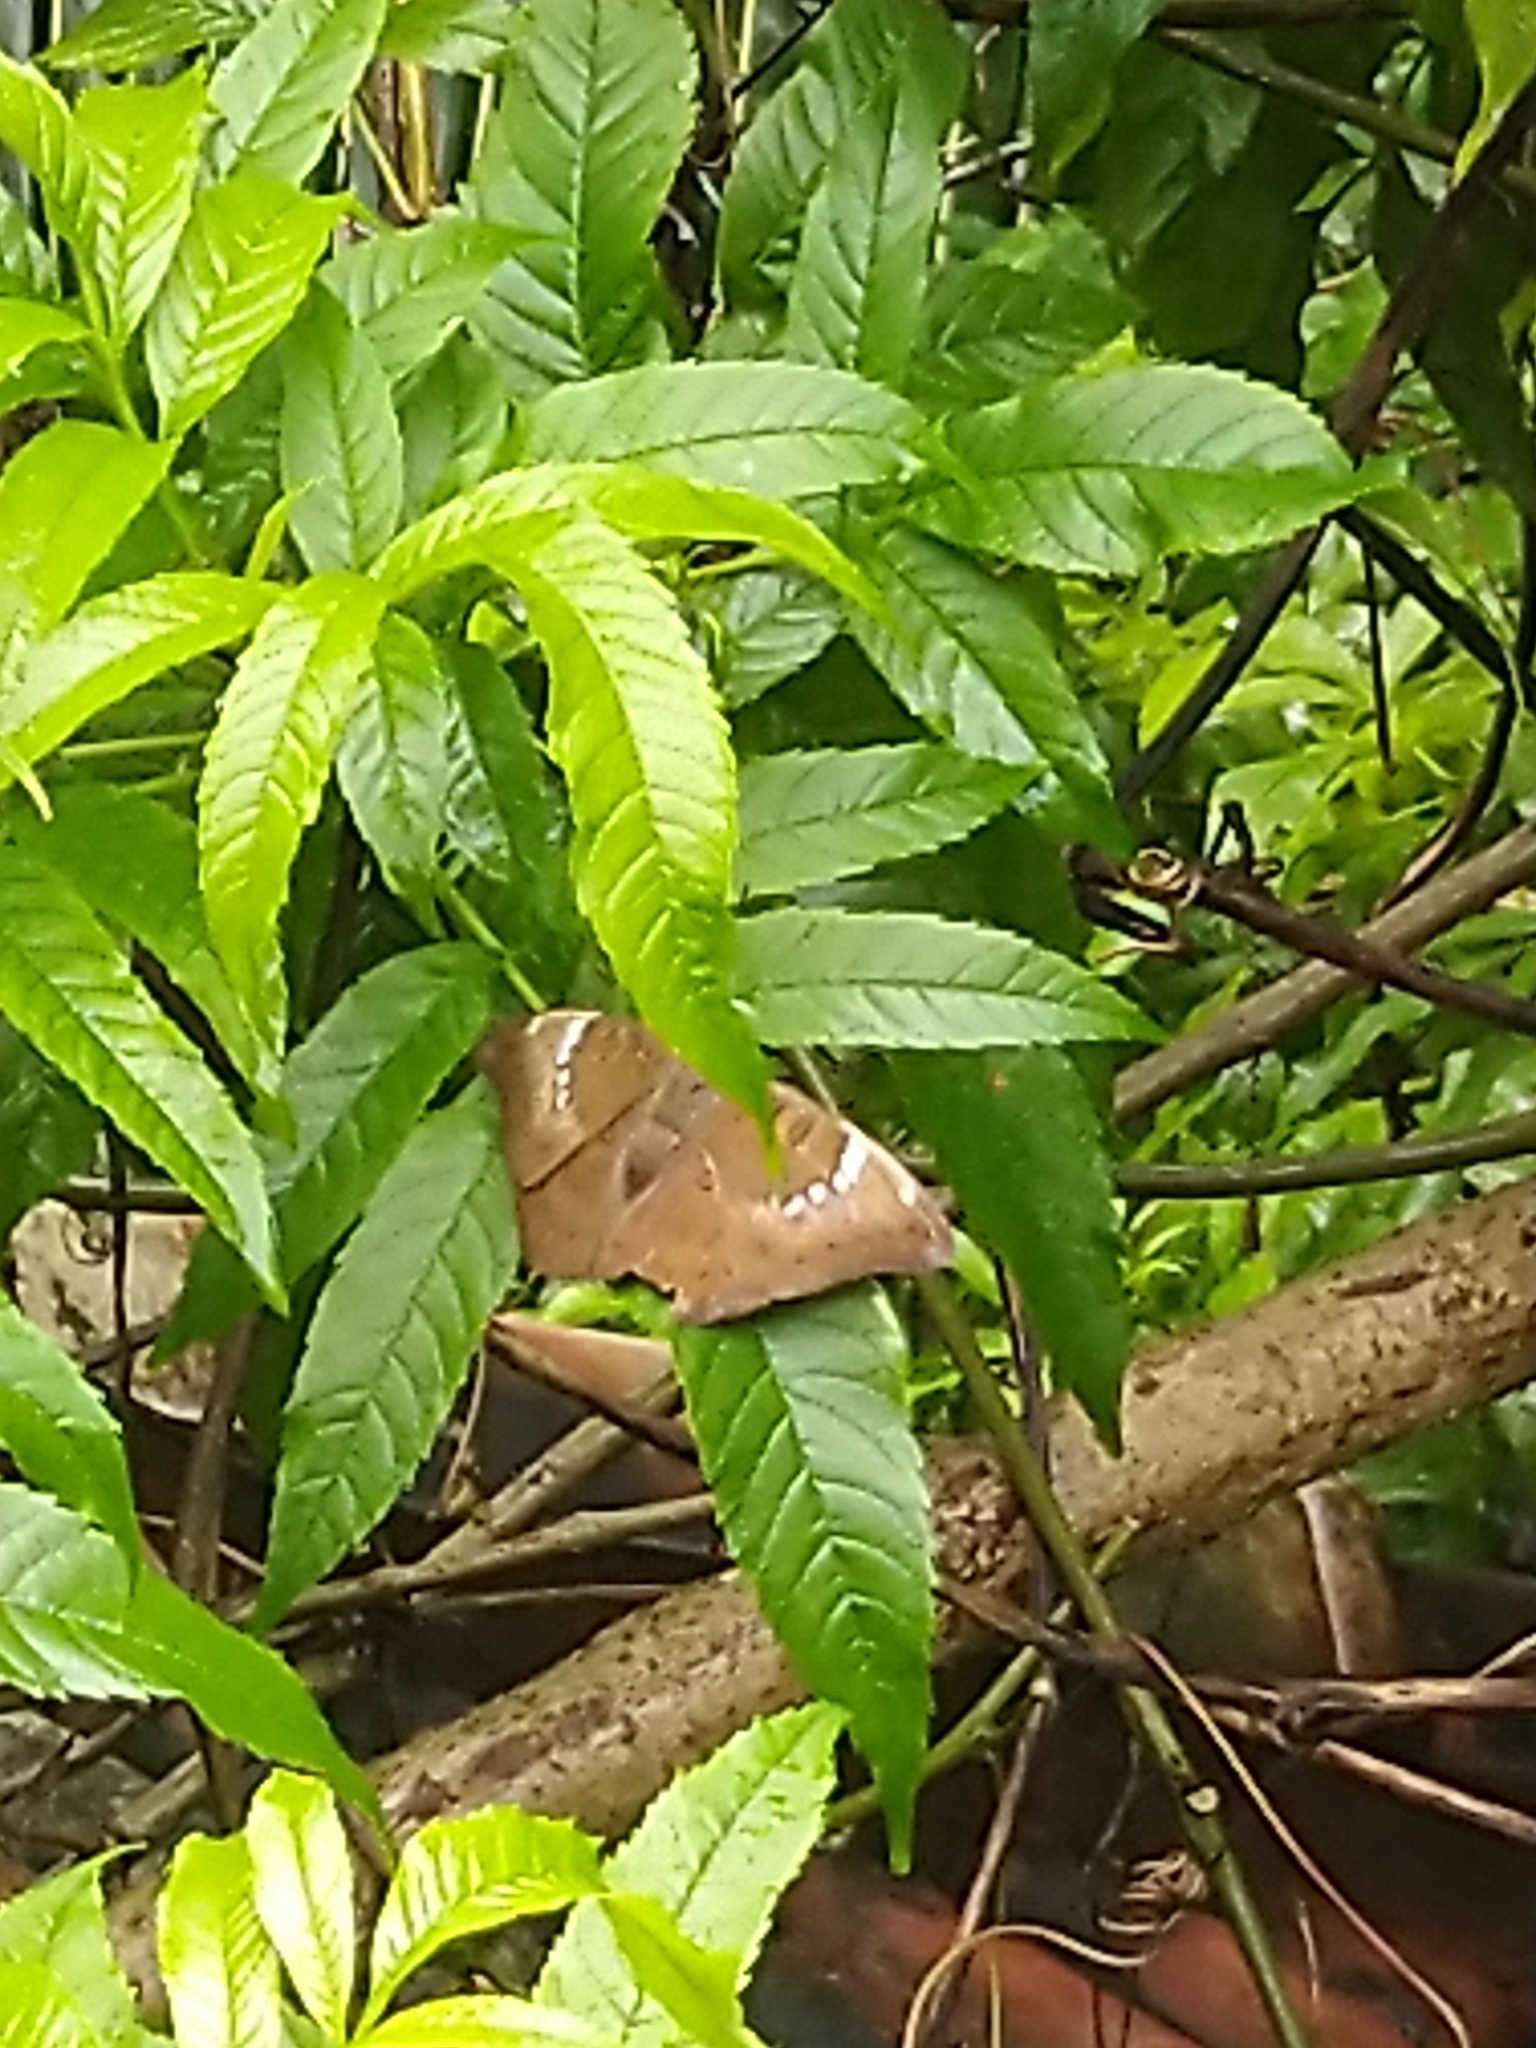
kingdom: Animalia
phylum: Arthropoda
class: Insecta
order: Lepidoptera
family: Nymphalidae
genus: Euthalia
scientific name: Euthalia aconthea
